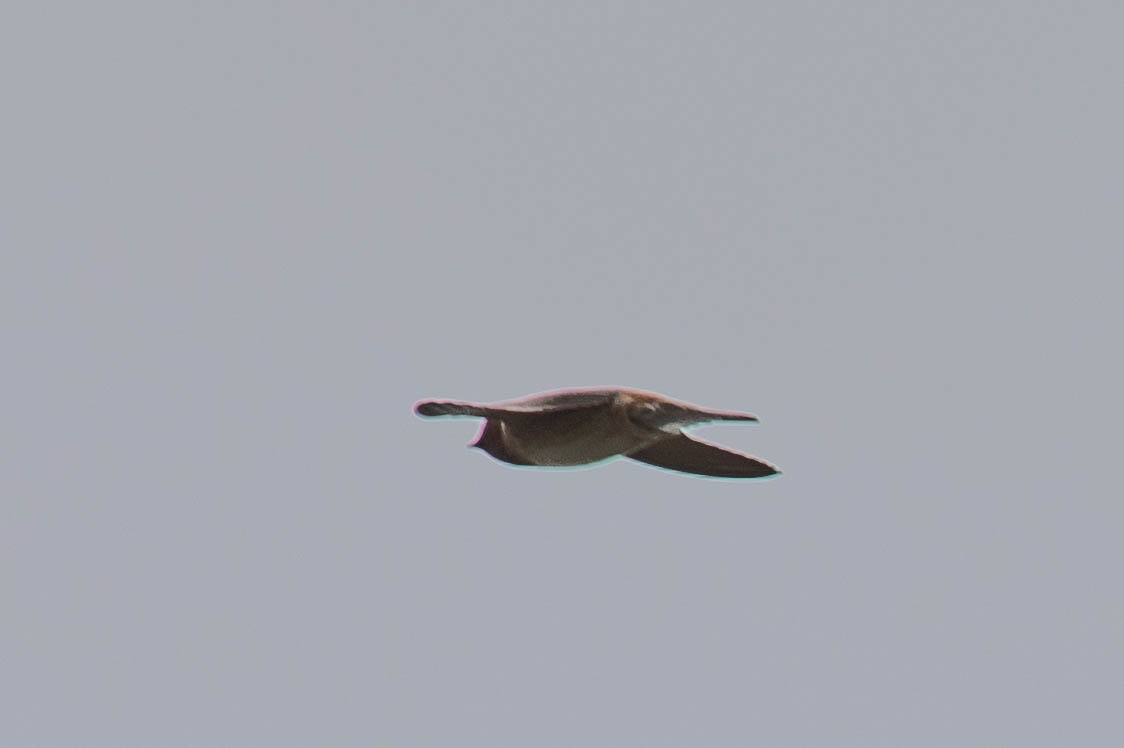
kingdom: Animalia
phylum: Chordata
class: Aves
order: Passeriformes
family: Hirundinidae
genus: Petrochelidon
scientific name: Petrochelidon pyrrhonota
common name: American cliff swallow
